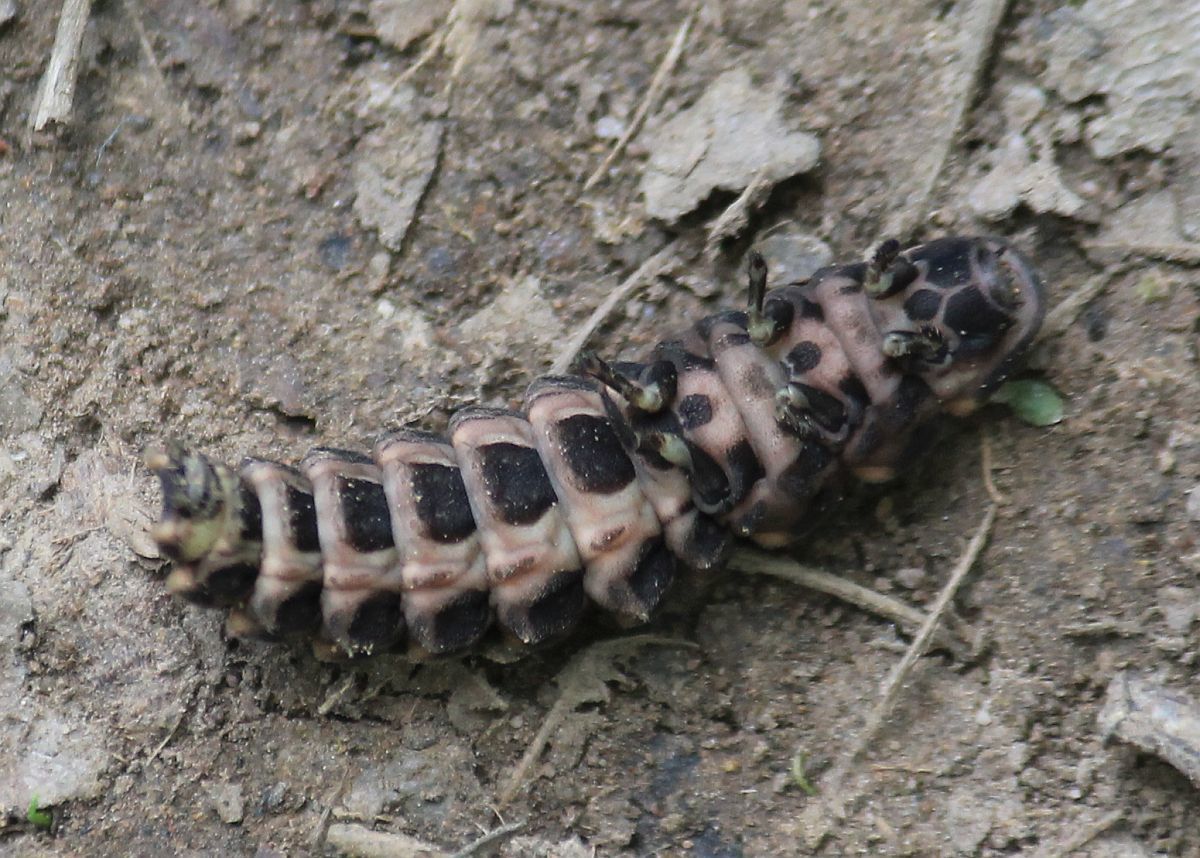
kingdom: Animalia
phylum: Arthropoda
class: Insecta
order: Coleoptera
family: Lampyridae
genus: Lampyris
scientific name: Lampyris noctiluca
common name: Glow-worm
